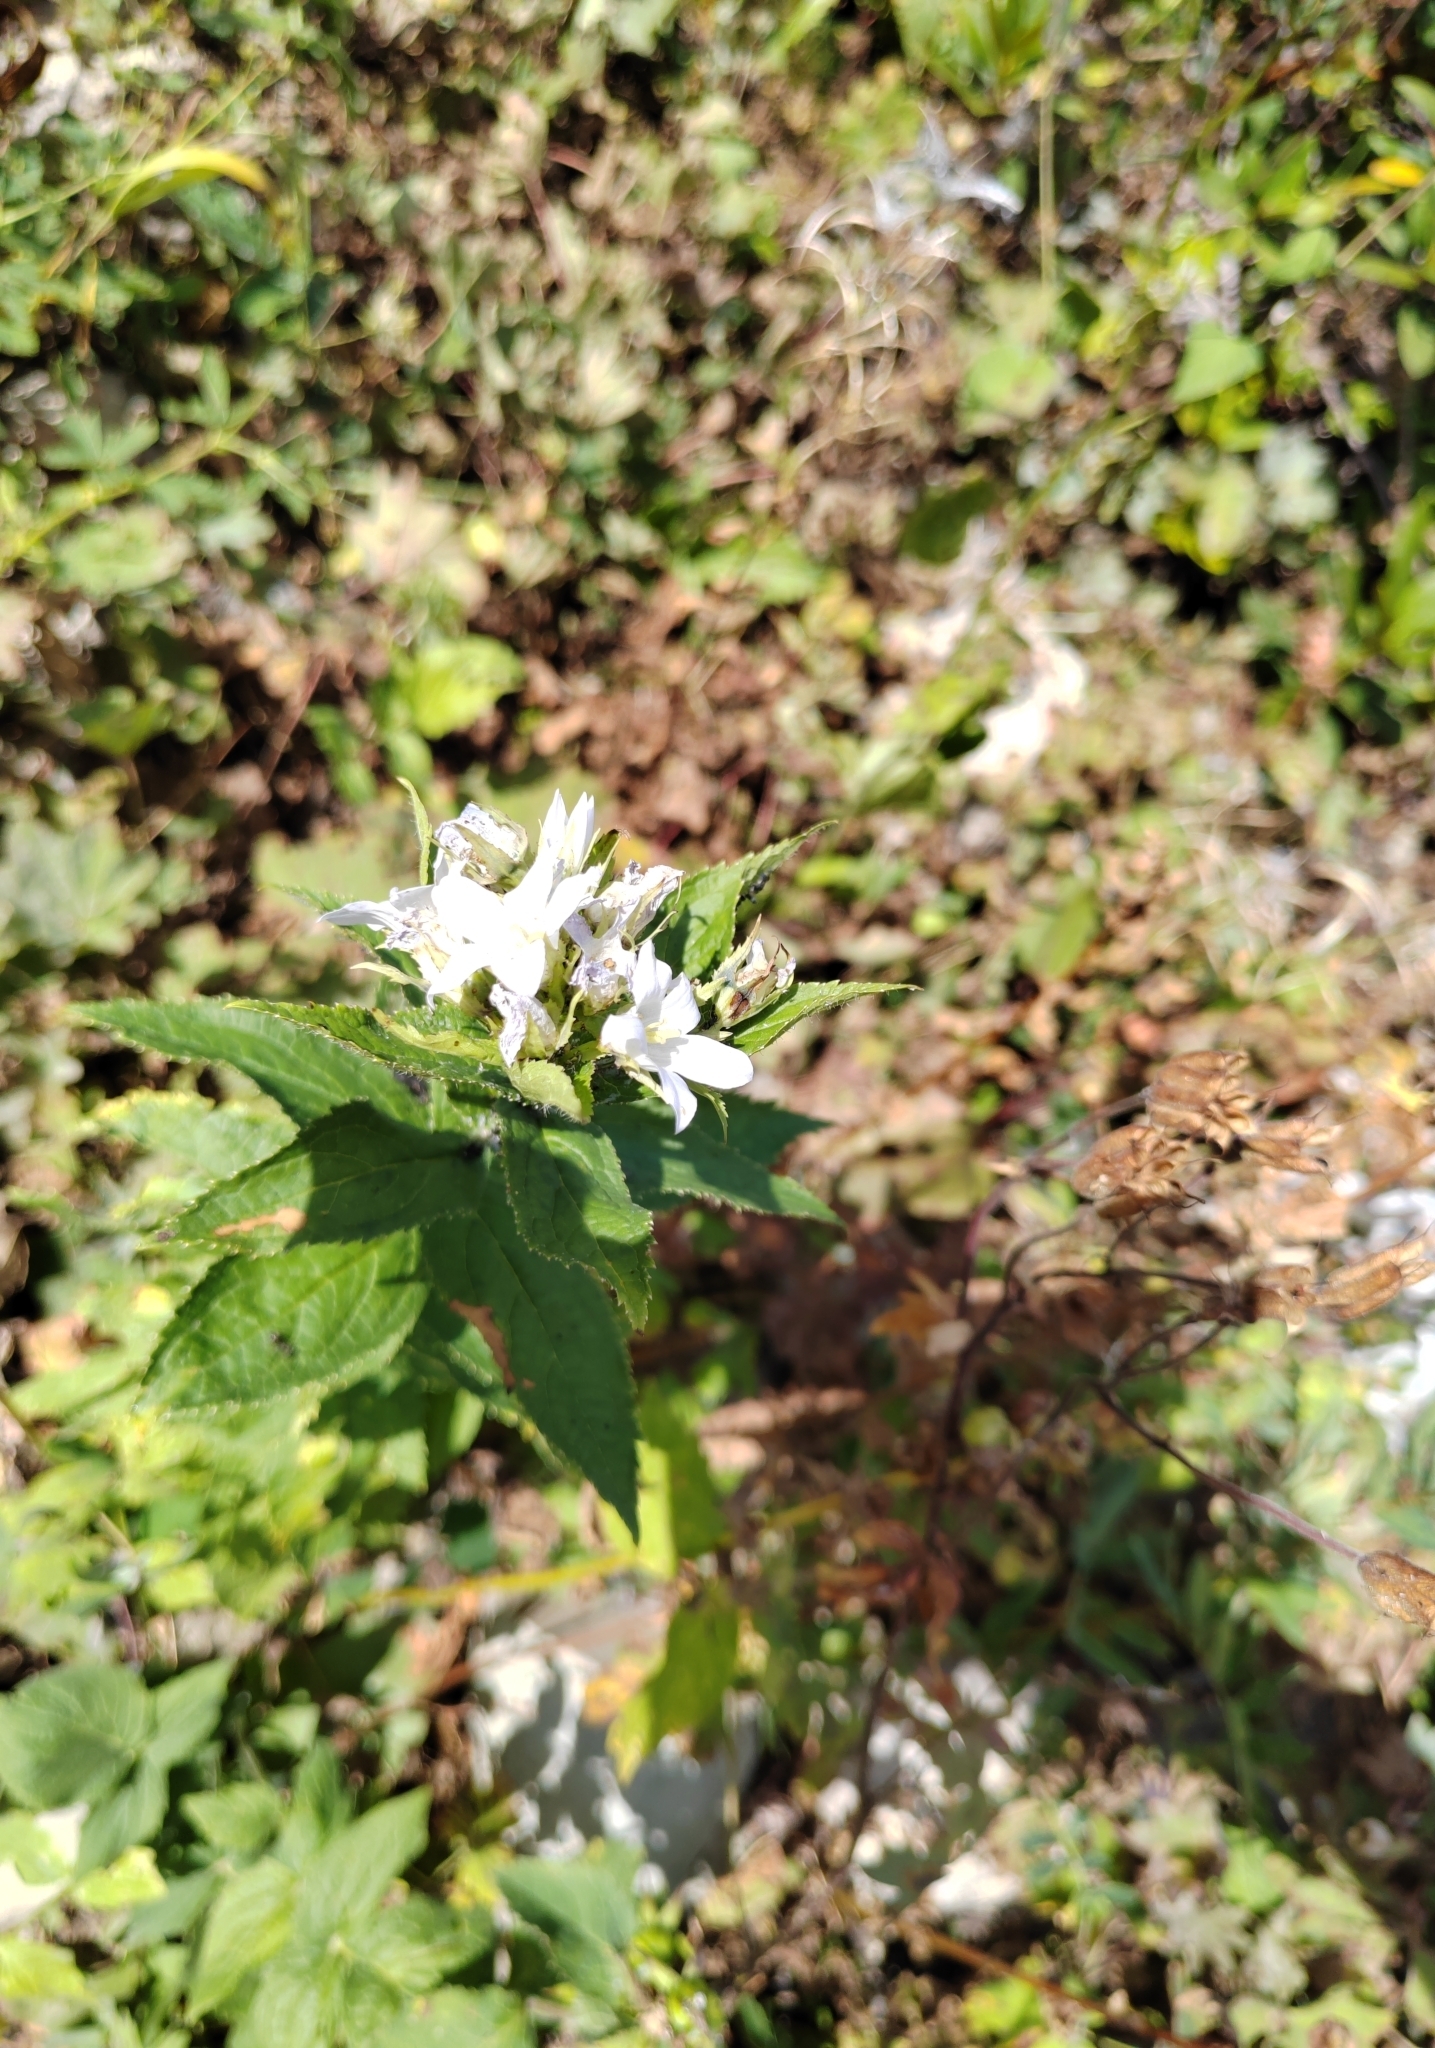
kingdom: Plantae
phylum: Tracheophyta
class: Magnoliopsida
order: Asterales
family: Campanulaceae
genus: Campanula
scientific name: Campanula lactiflora
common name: Milky bellflower
